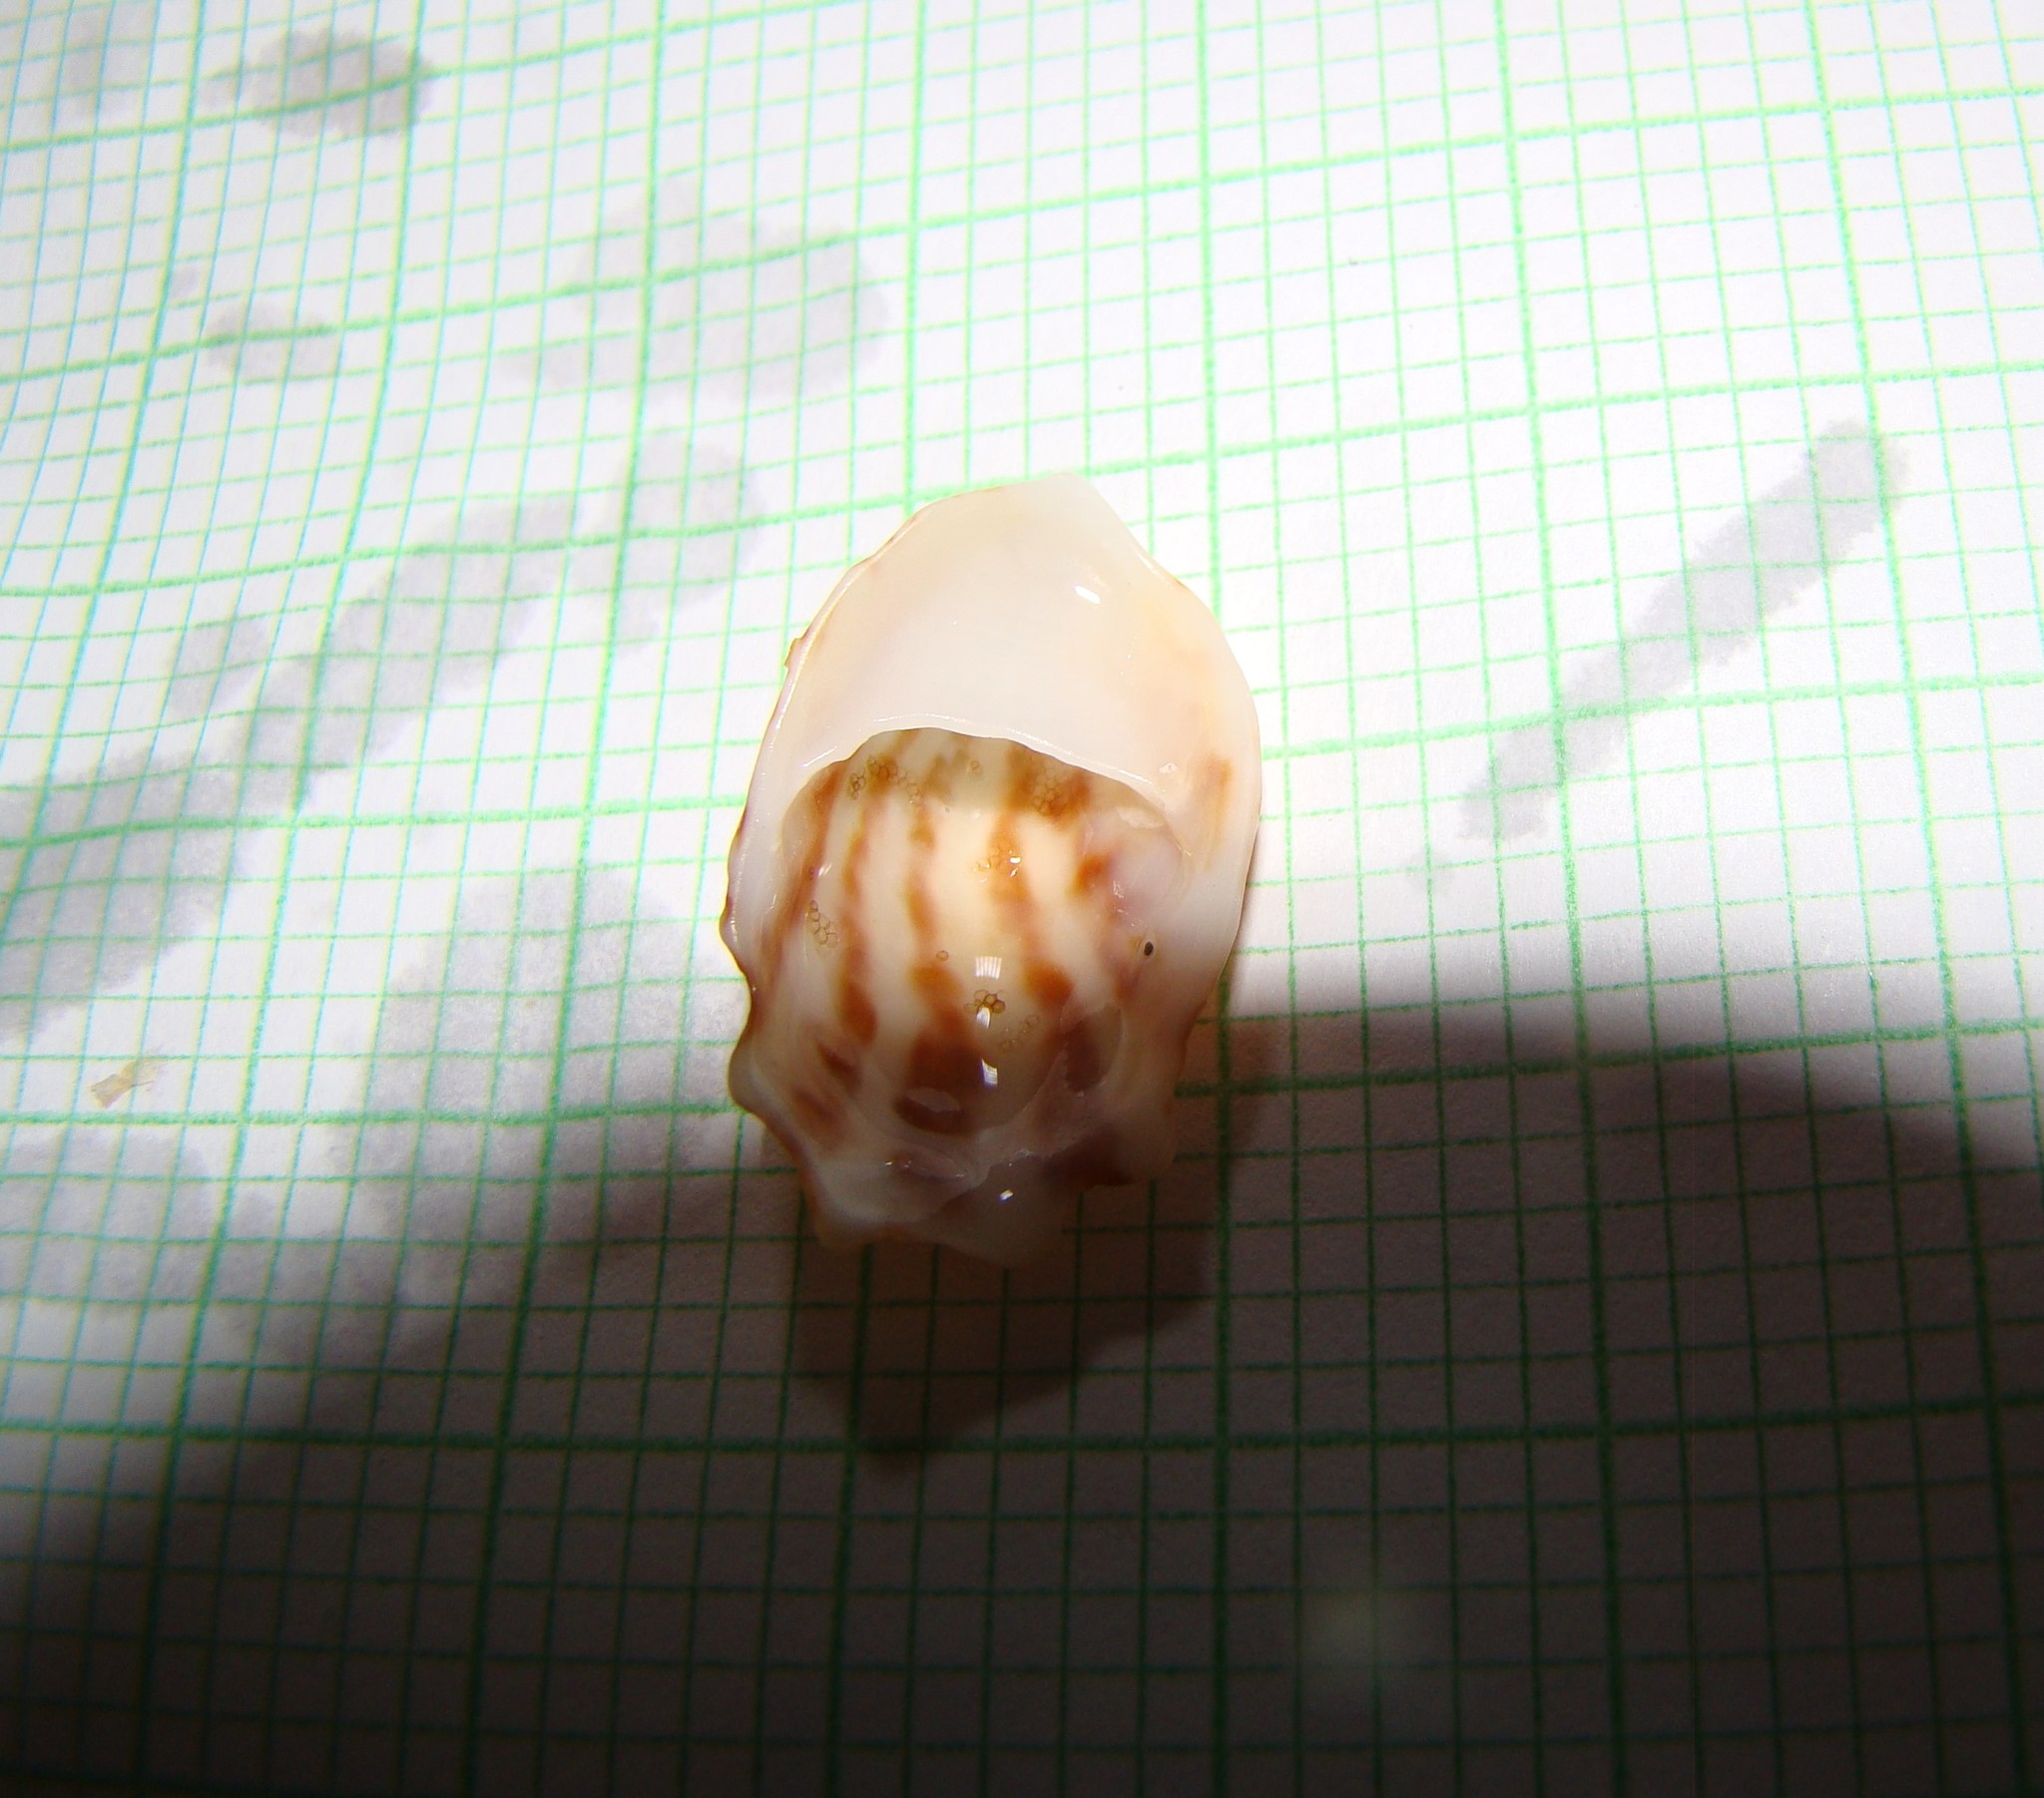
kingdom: Animalia
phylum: Mollusca
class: Gastropoda
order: Littorinimorpha
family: Calyptraeidae
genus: Maoricrypta
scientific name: Maoricrypta costata
